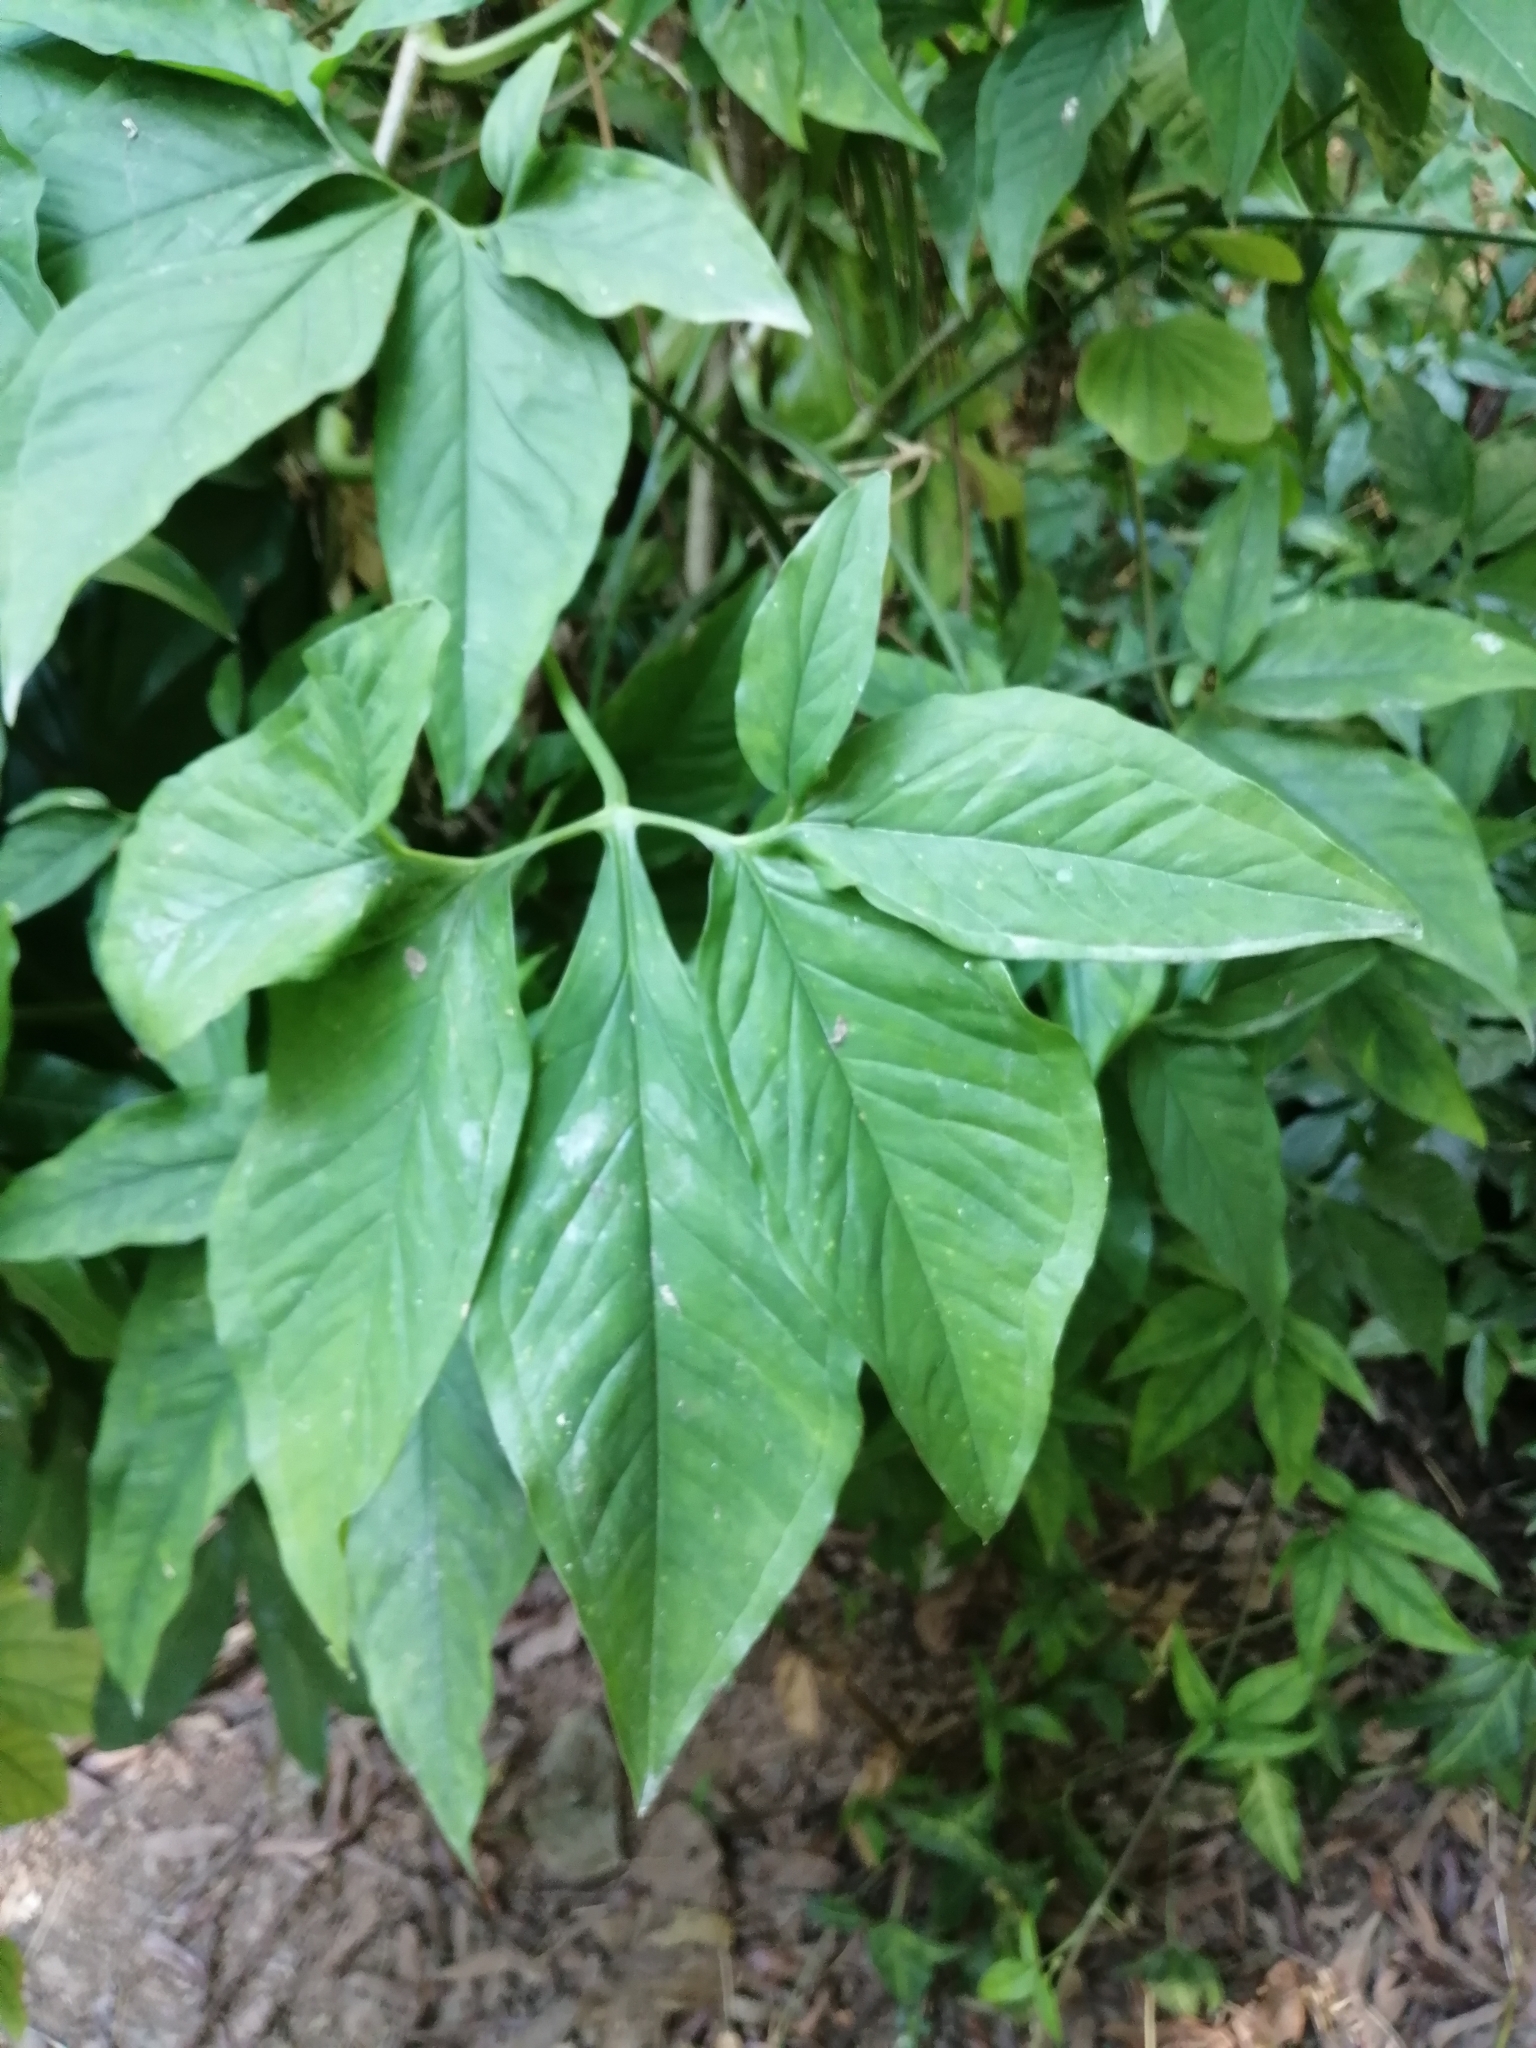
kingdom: Plantae
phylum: Tracheophyta
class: Liliopsida
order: Alismatales
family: Araceae
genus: Syngonium
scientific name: Syngonium angustatum
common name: Fivefingers
